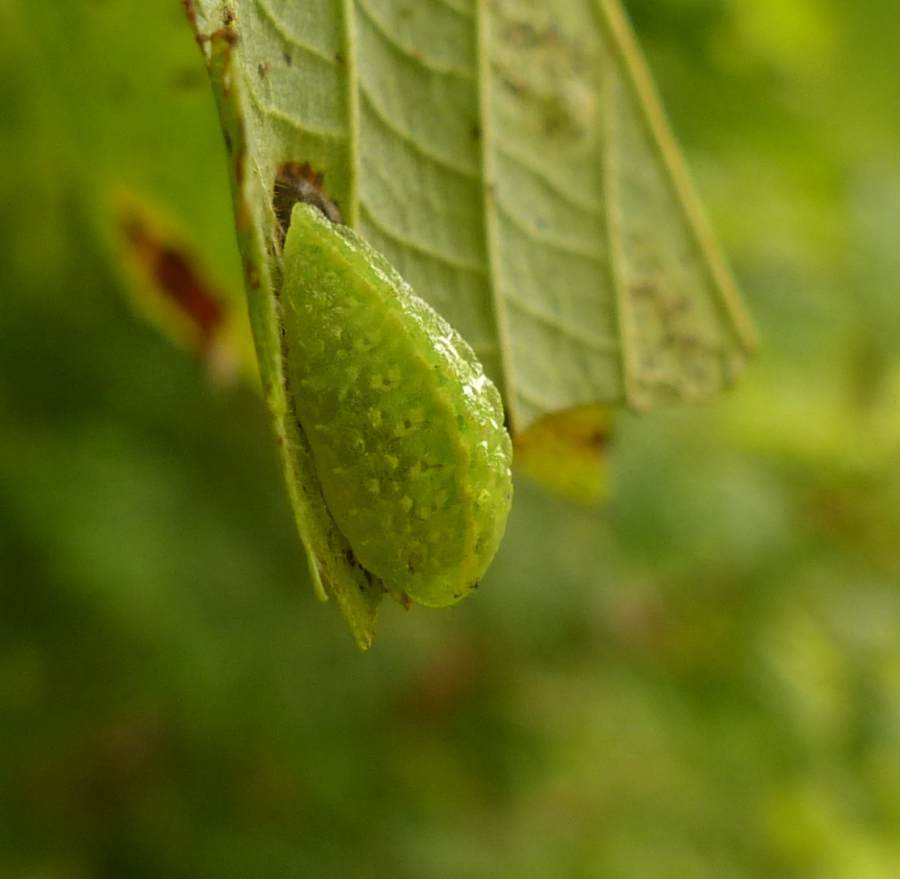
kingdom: Animalia
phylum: Arthropoda
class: Insecta
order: Lepidoptera
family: Limacodidae
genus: Lithacodes
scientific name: Lithacodes fasciola
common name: Yellow-shouldered slug moth
